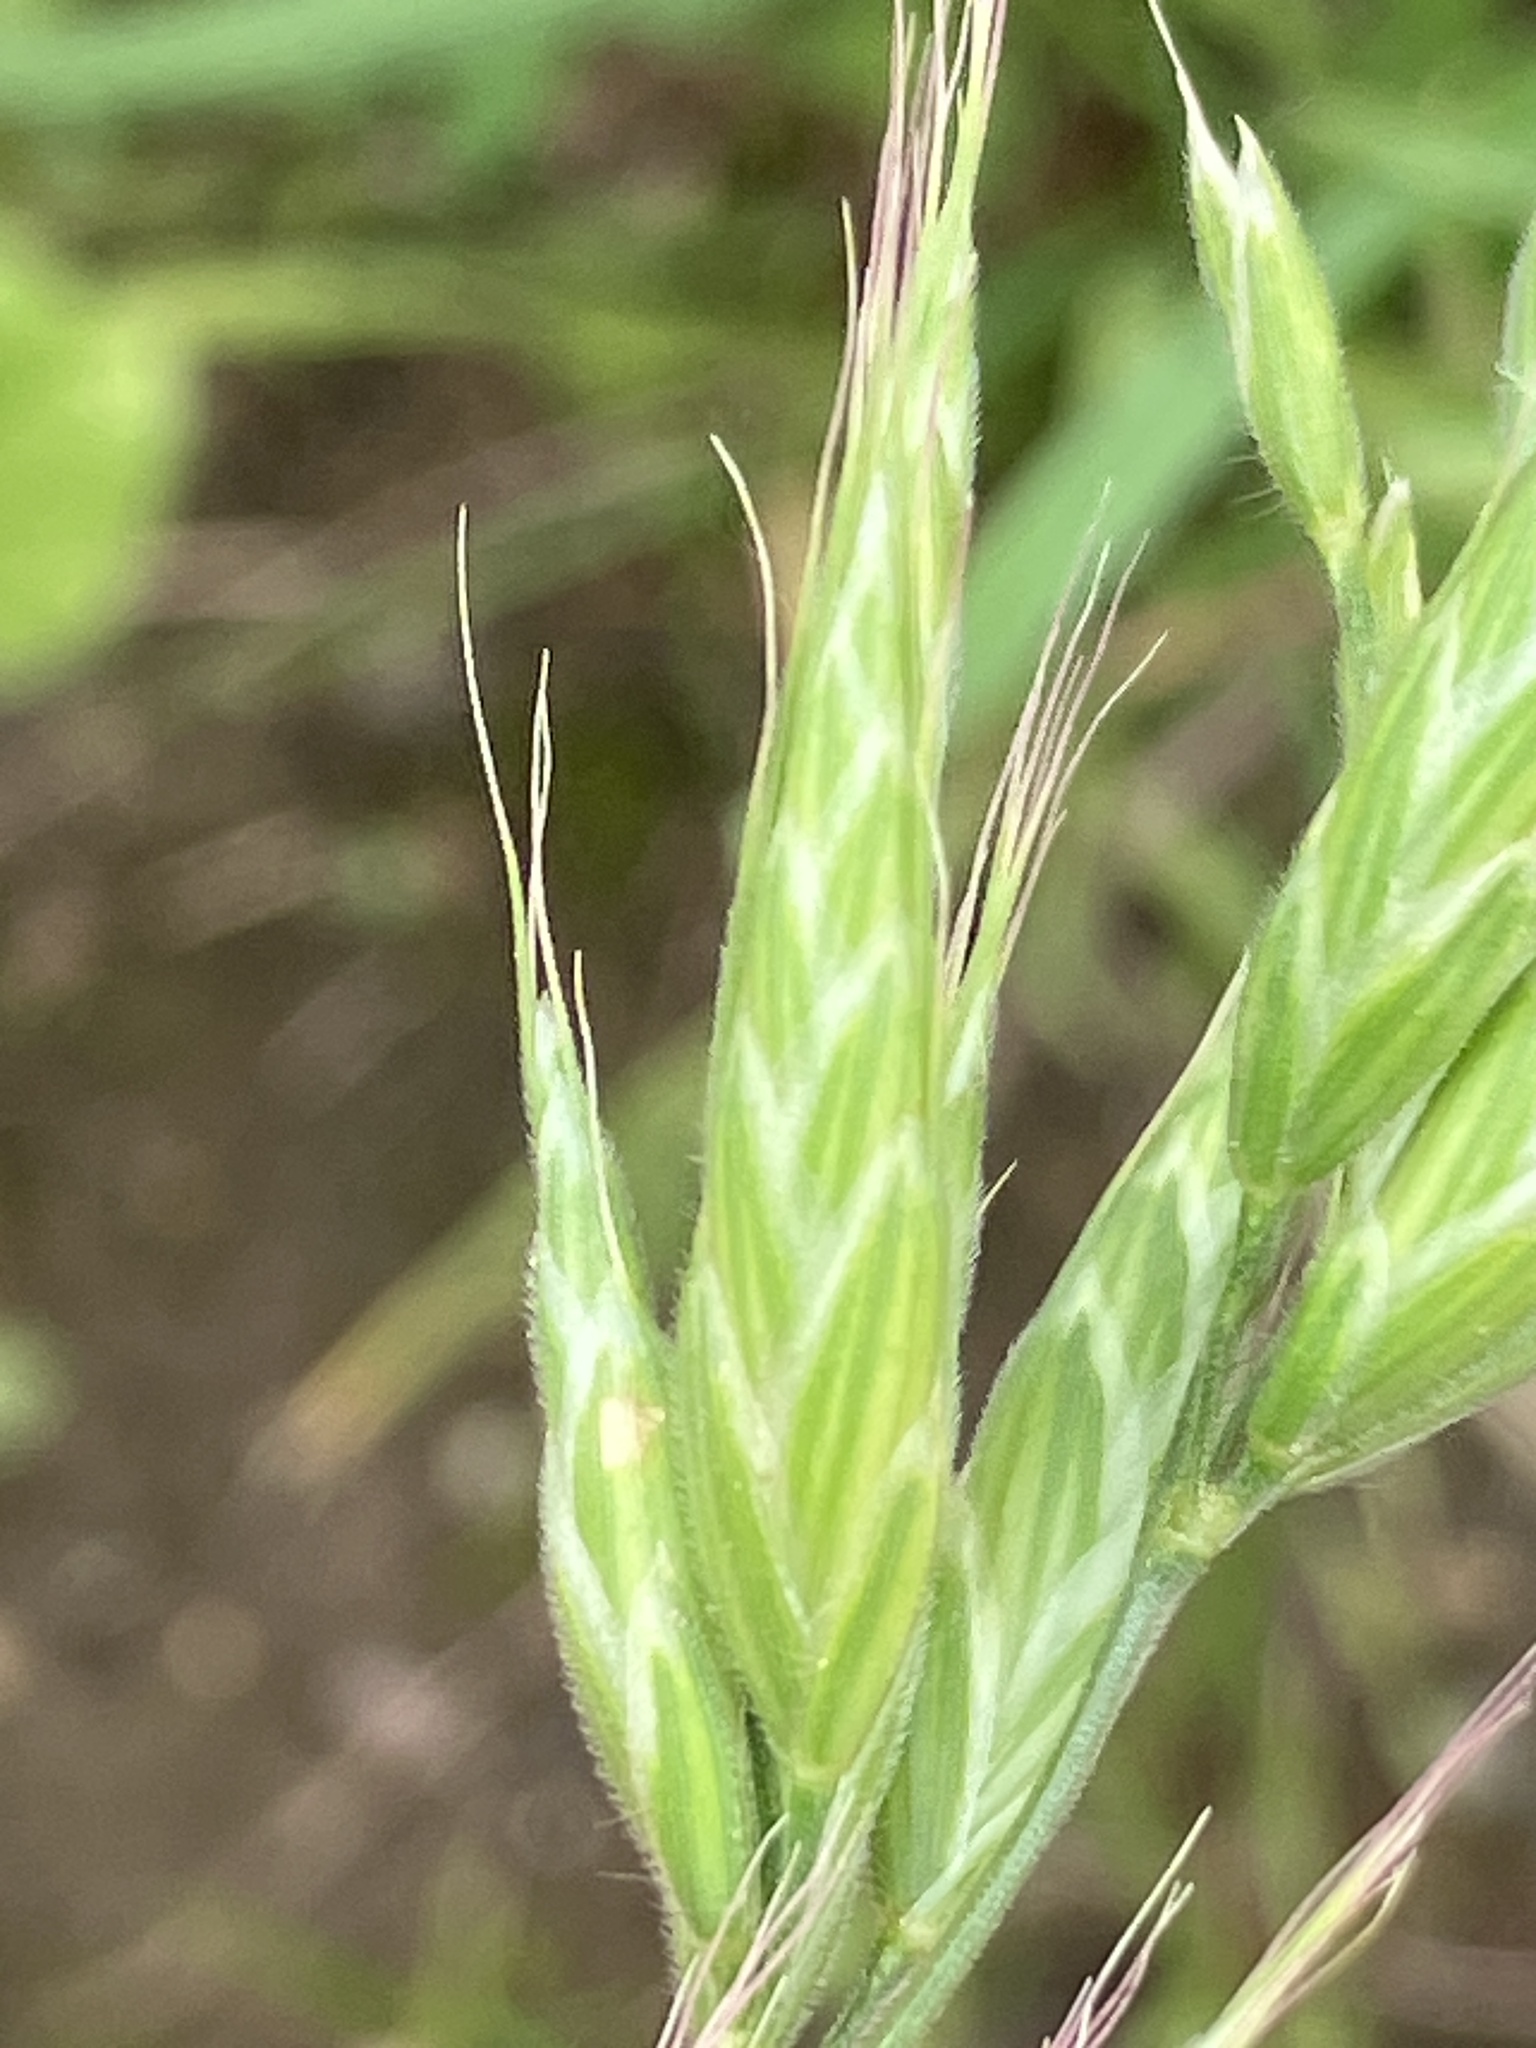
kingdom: Plantae
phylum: Tracheophyta
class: Liliopsida
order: Poales
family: Poaceae
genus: Bromus
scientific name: Bromus hordeaceus
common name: Soft brome
